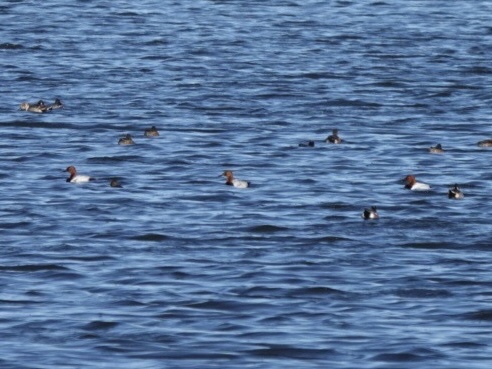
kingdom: Animalia
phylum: Chordata
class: Aves
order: Anseriformes
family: Anatidae
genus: Aythya
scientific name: Aythya valisineria
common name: Canvasback
